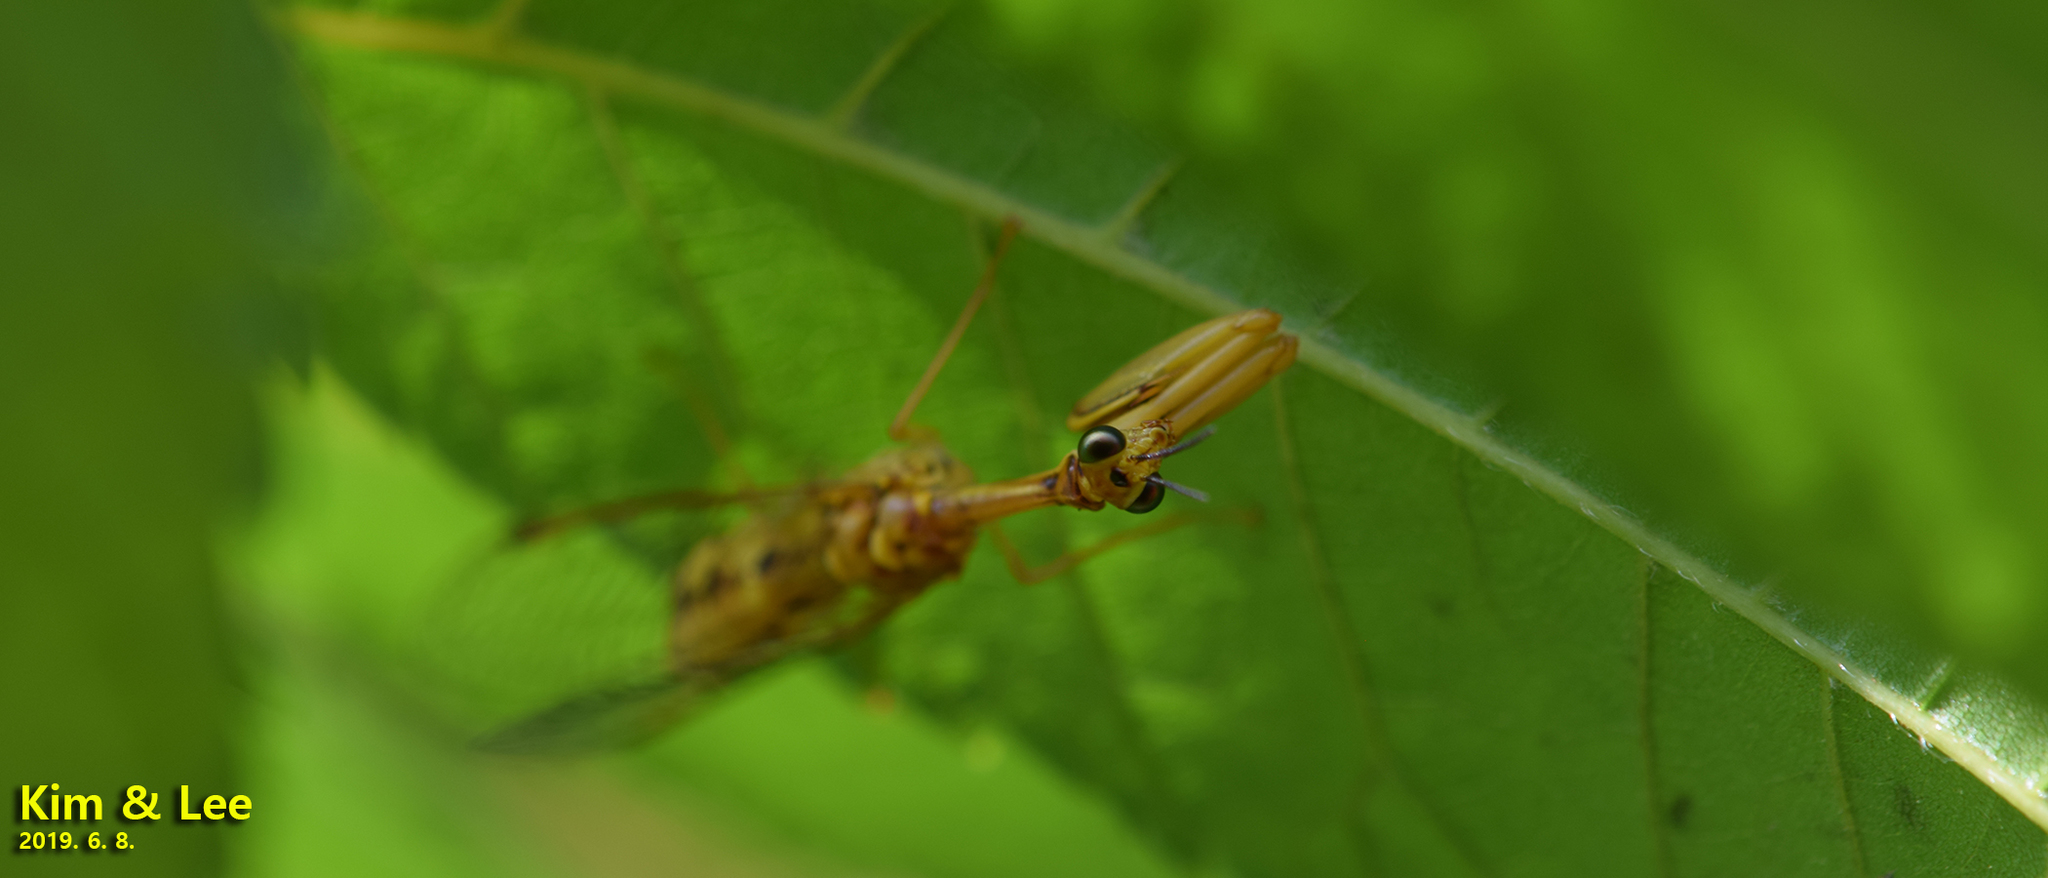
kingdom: Animalia
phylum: Arthropoda
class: Insecta
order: Neuroptera
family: Mantispidae
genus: Eumantispa
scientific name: Eumantispa harmandi
